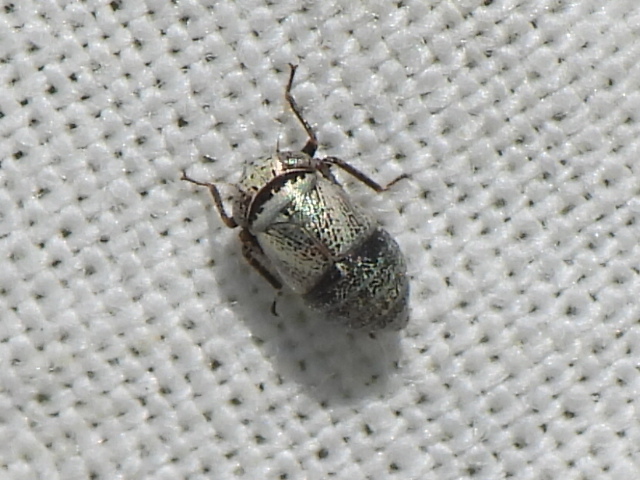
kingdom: Animalia
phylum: Arthropoda
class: Insecta
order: Hemiptera
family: Cicadellidae
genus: Driotura
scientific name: Driotura robusta
